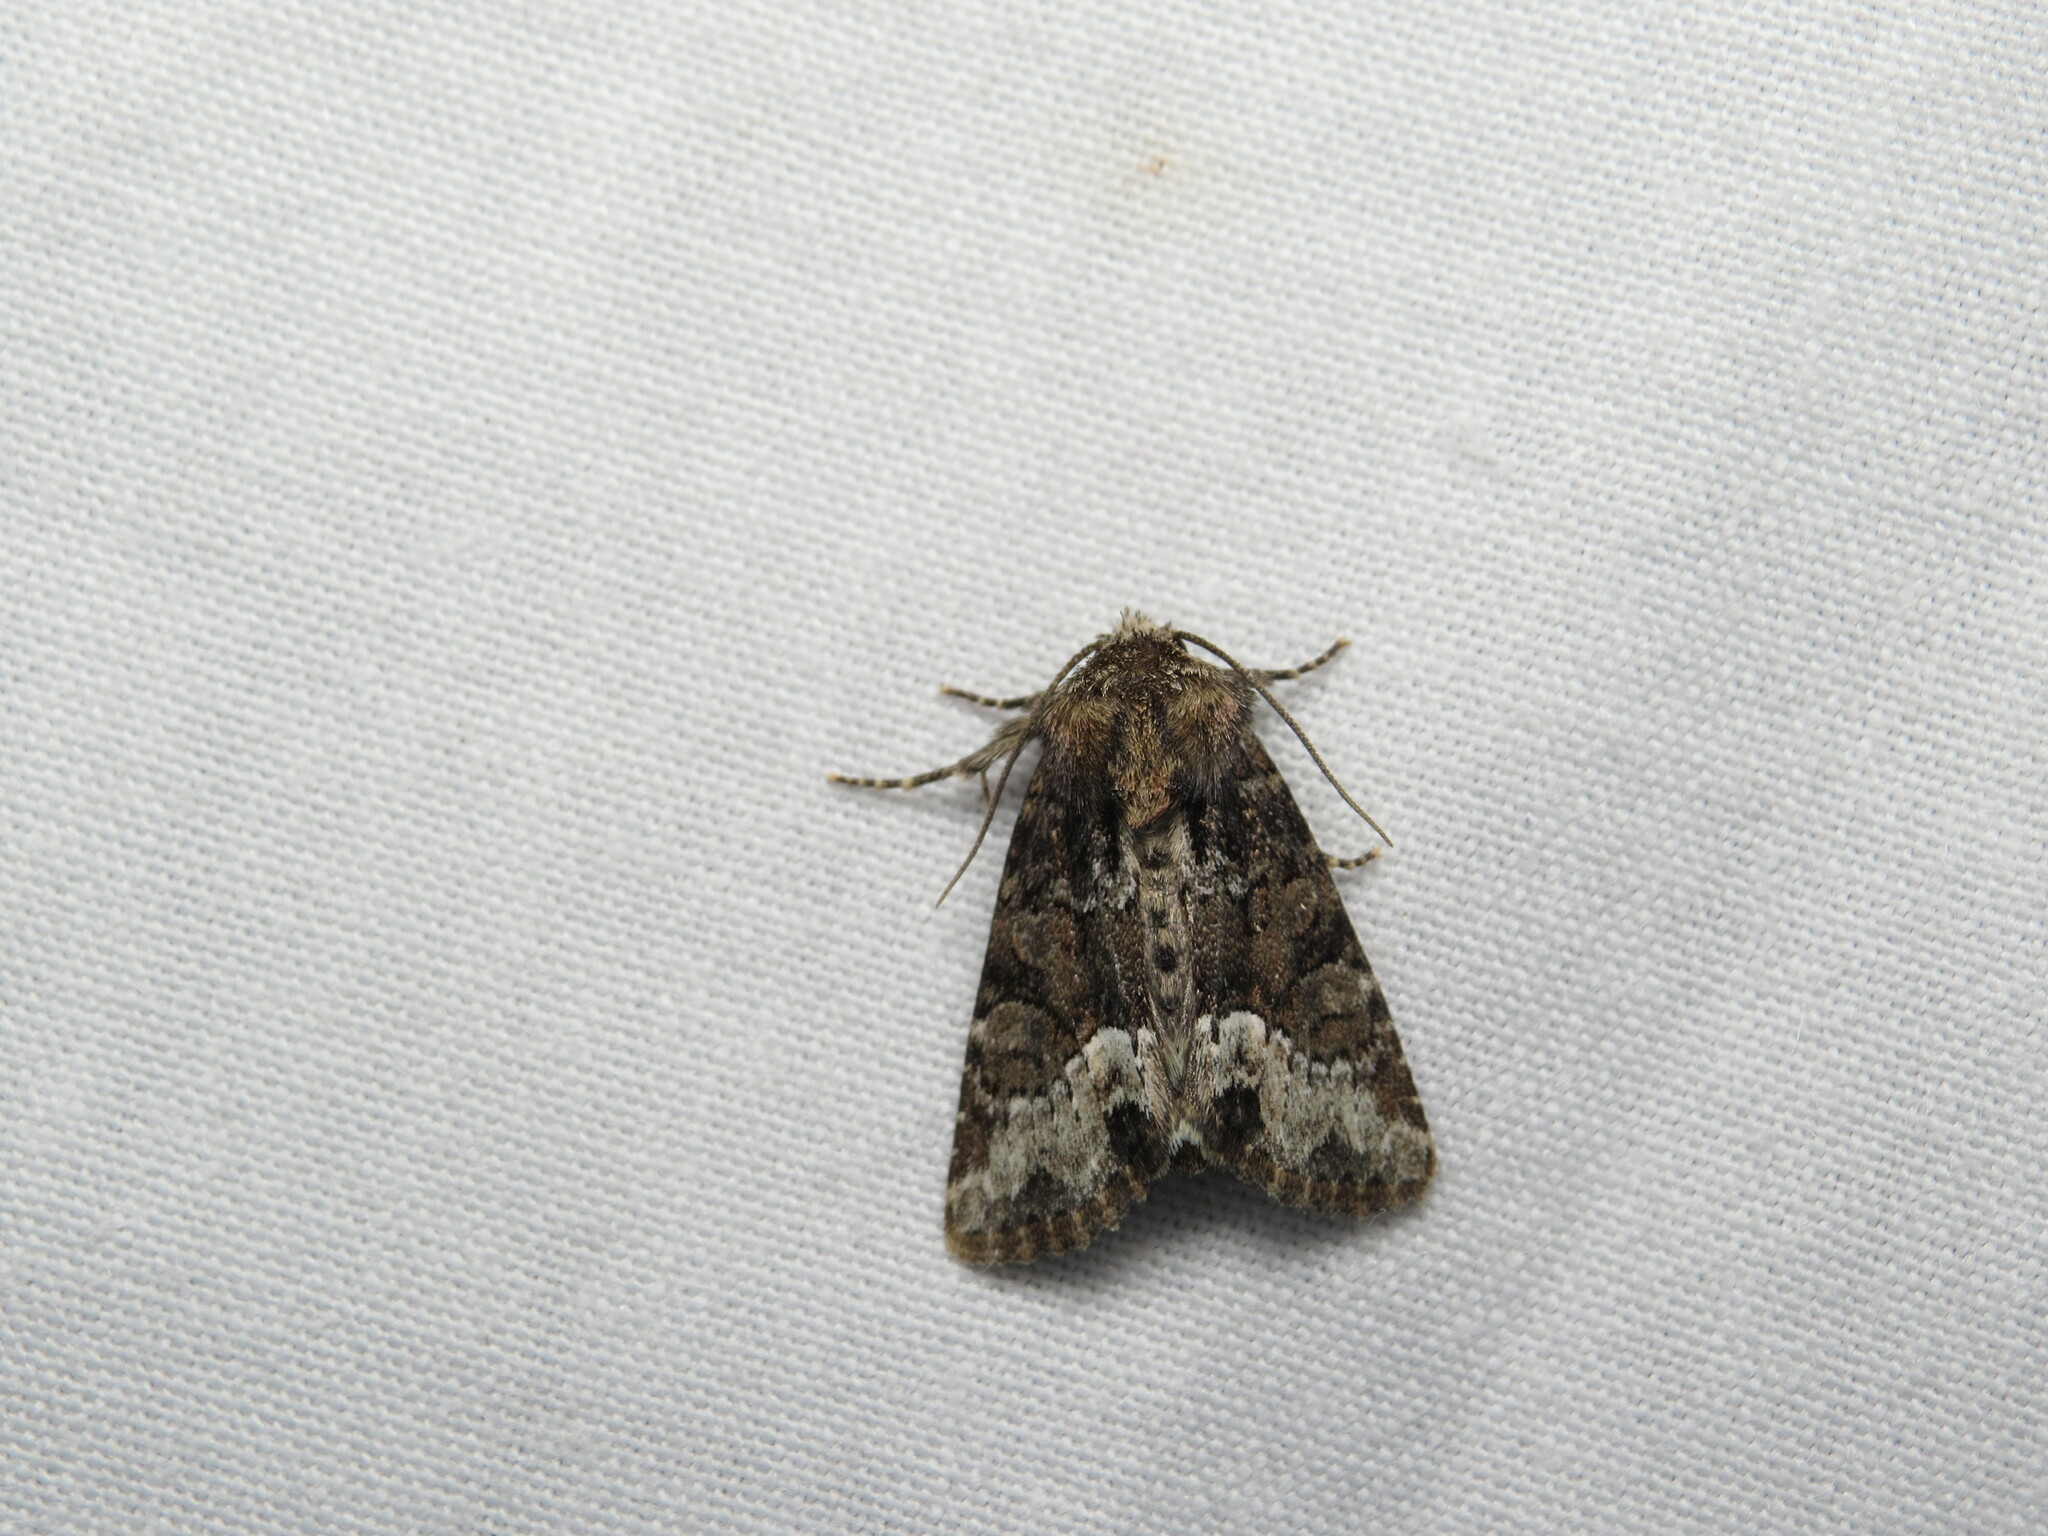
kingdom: Animalia
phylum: Arthropoda
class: Insecta
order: Lepidoptera
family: Noctuidae
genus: Oligia
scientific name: Oligia strigilis
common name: Marbled minor
